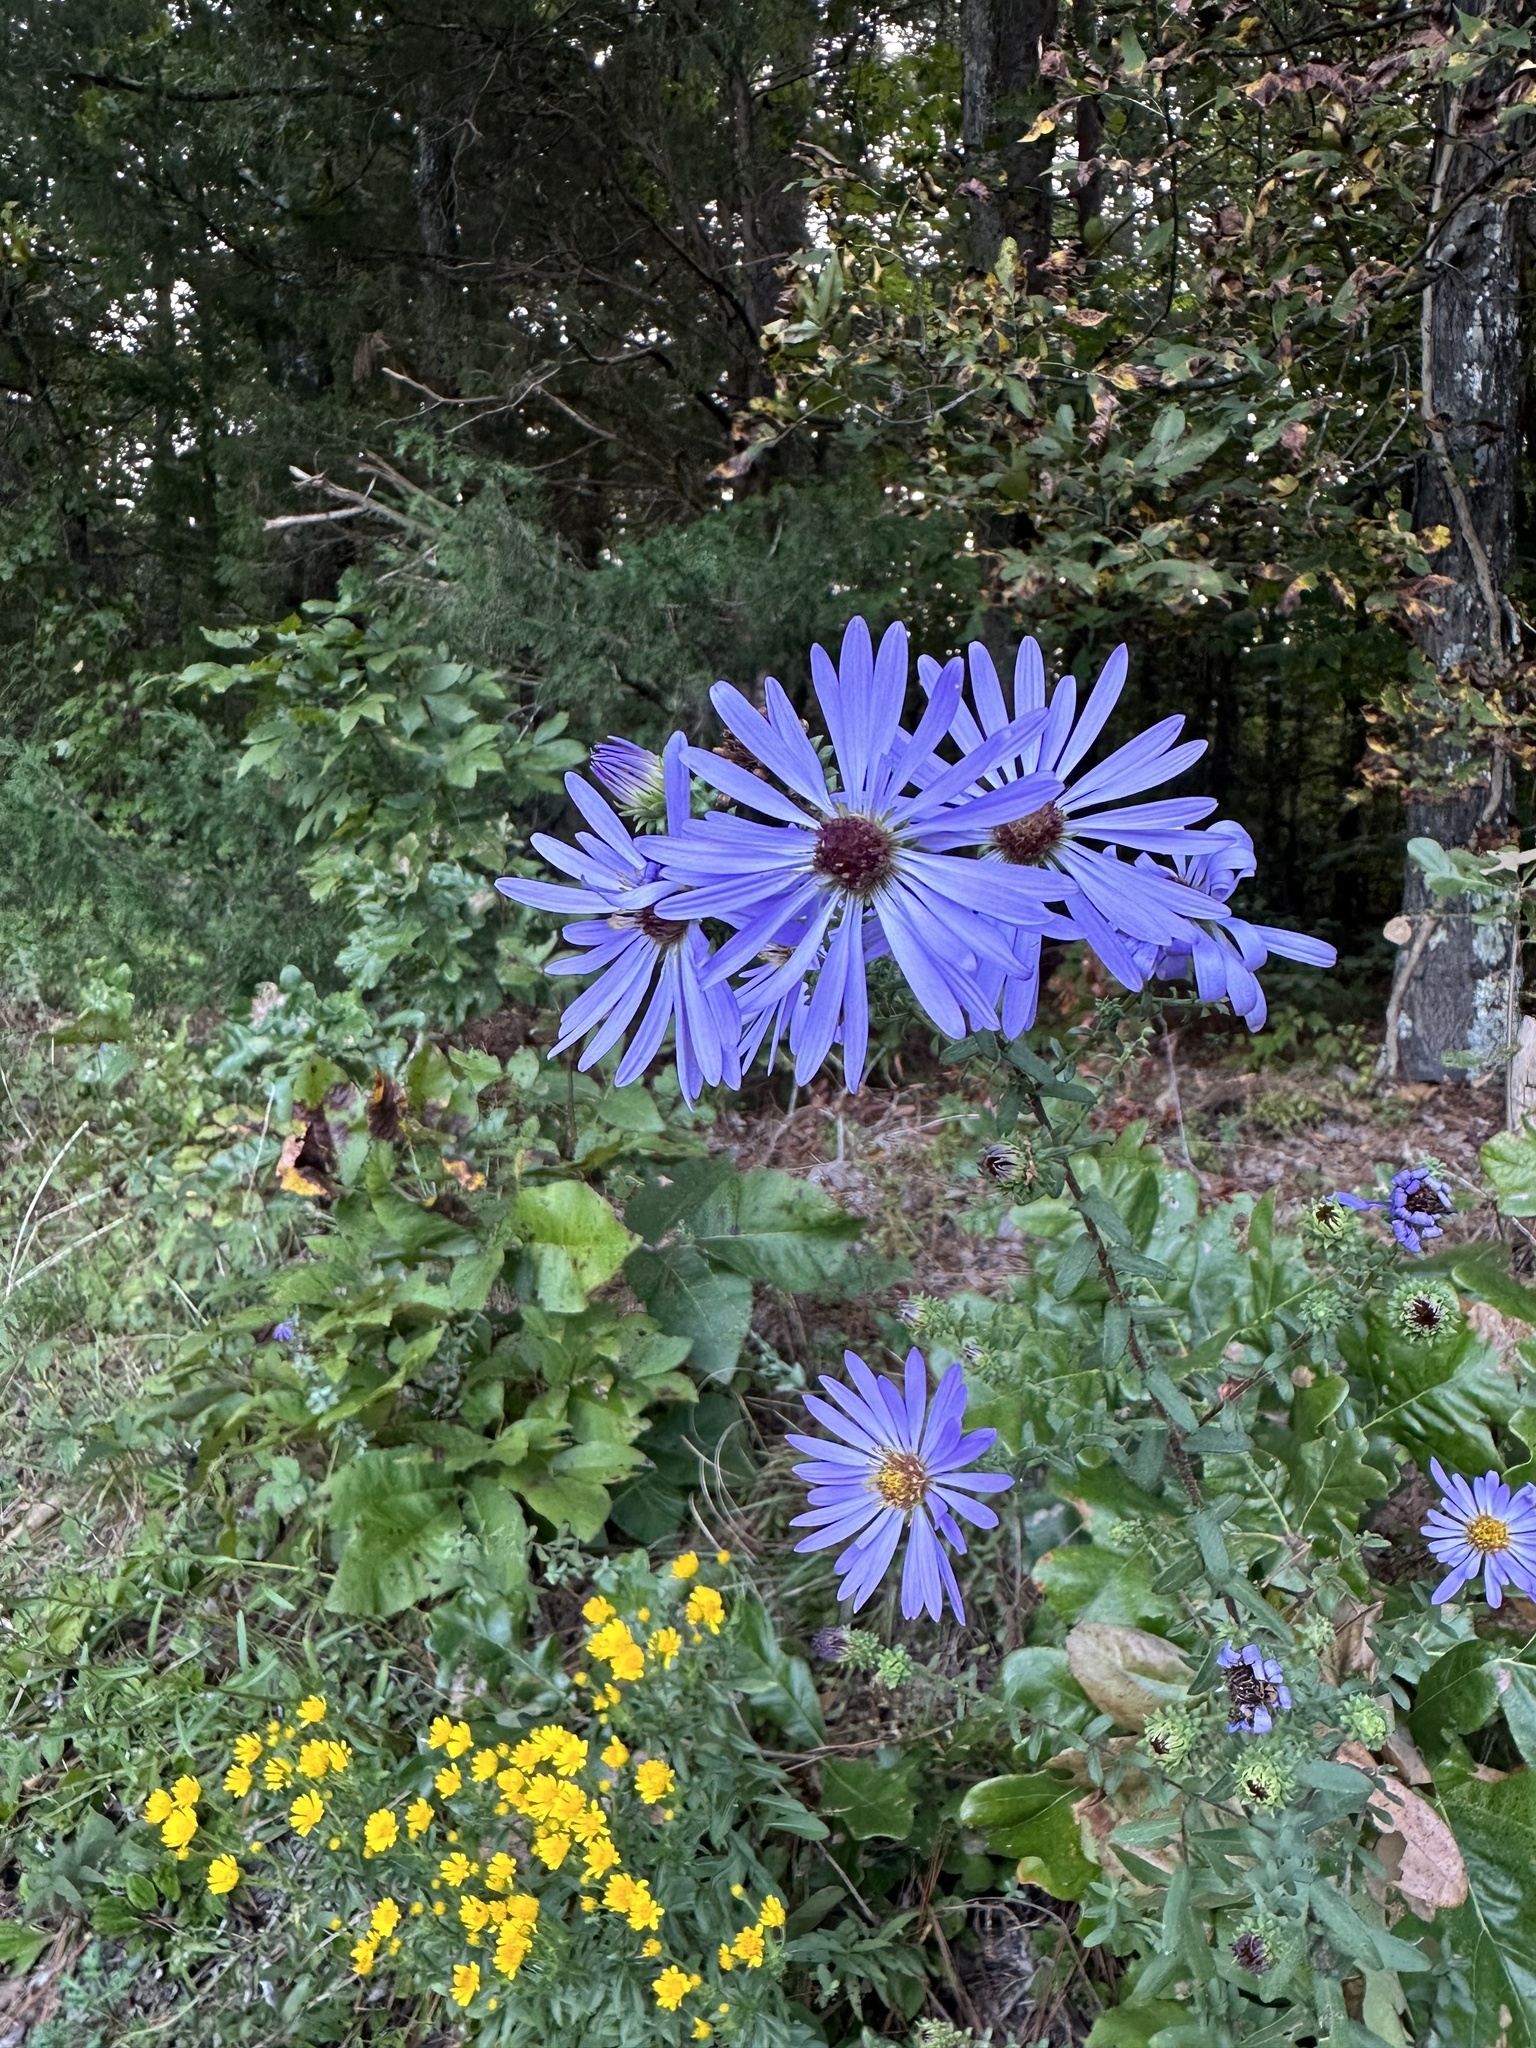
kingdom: Plantae
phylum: Tracheophyta
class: Magnoliopsida
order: Asterales
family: Asteraceae
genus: Symphyotrichum
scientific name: Symphyotrichum grandiflorum
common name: Big-head aster
